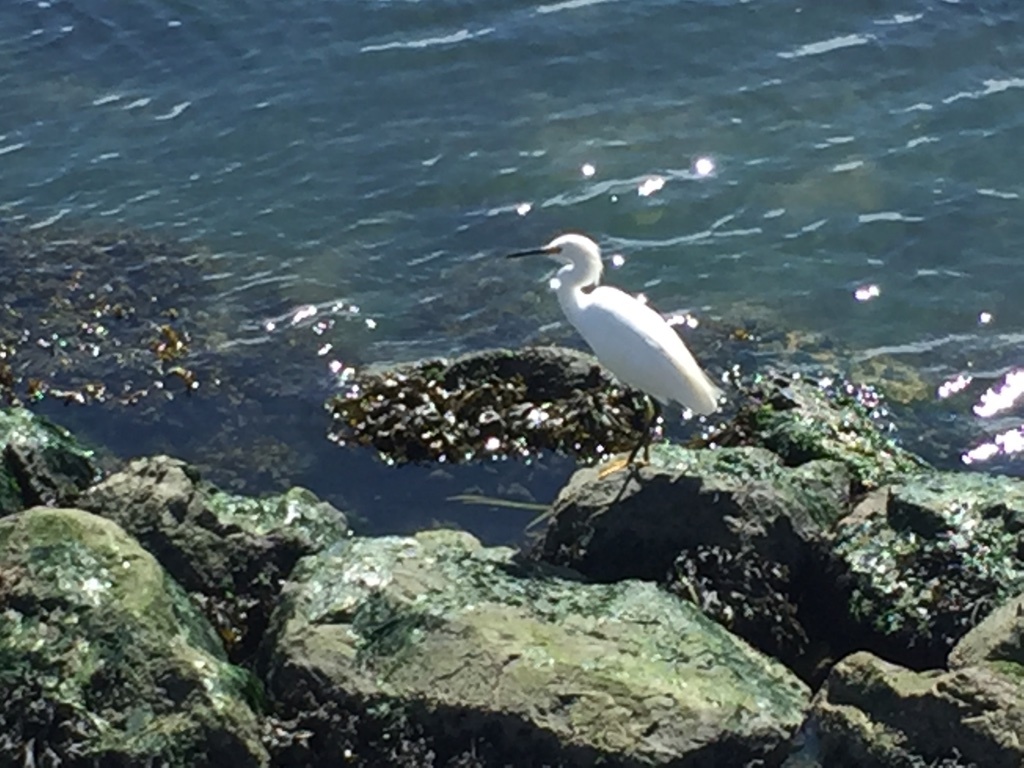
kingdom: Animalia
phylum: Chordata
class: Aves
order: Pelecaniformes
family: Ardeidae
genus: Egretta
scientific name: Egretta thula
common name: Snowy egret
